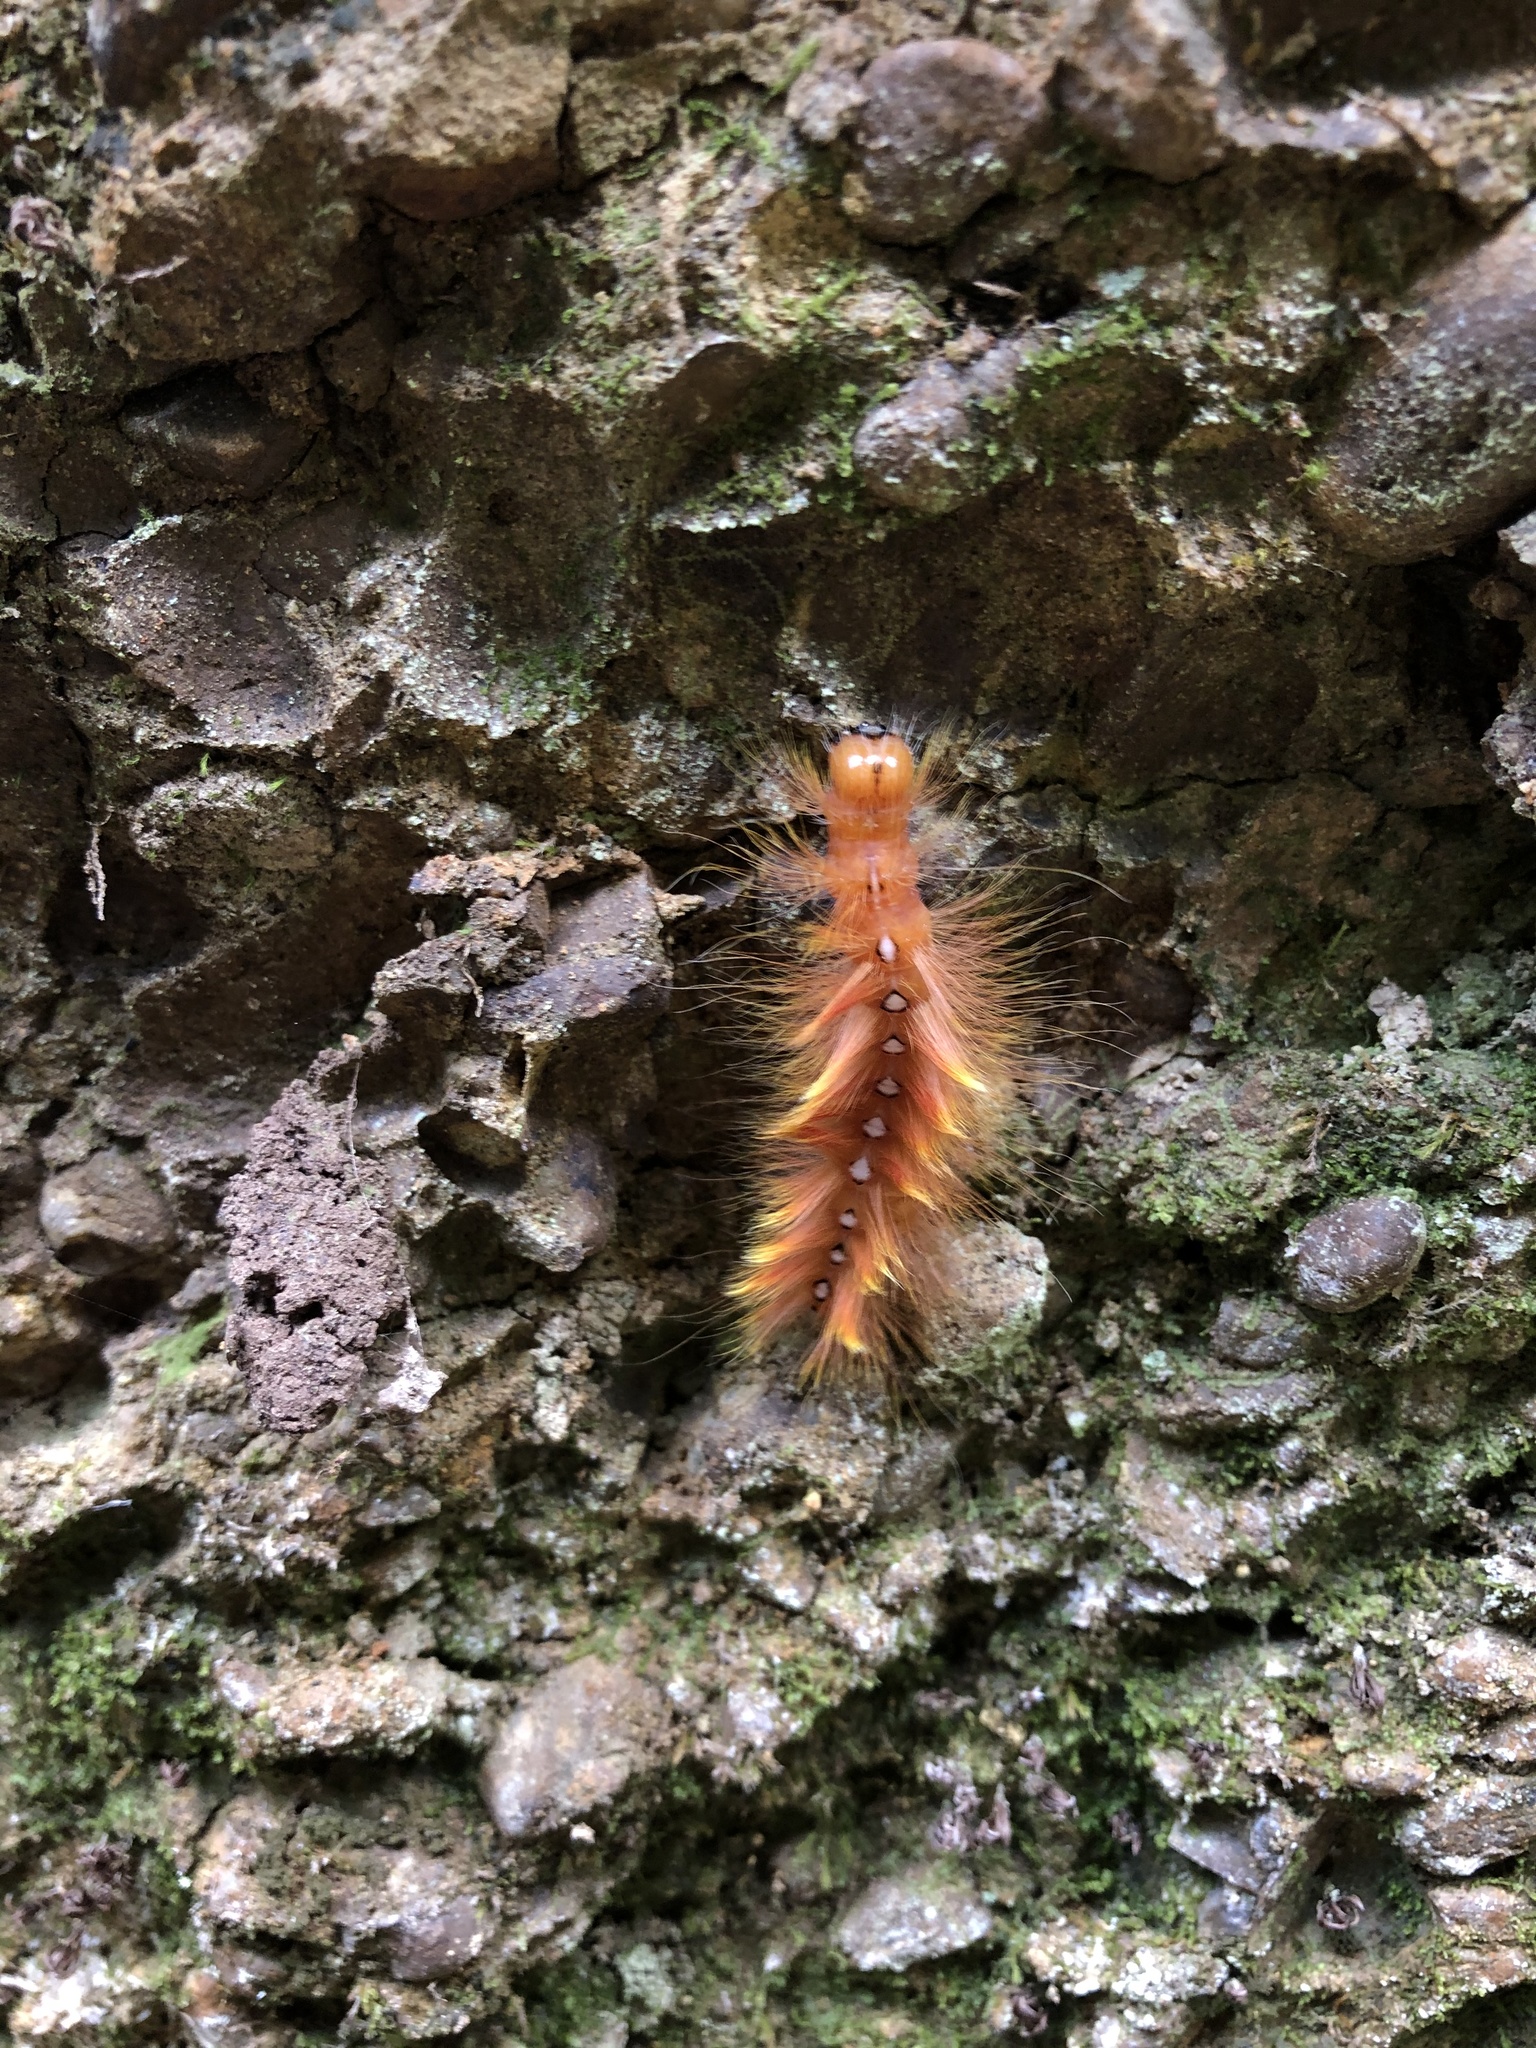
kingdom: Animalia
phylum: Arthropoda
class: Insecta
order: Lepidoptera
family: Noctuidae
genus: Acronicta
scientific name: Acronicta aceris
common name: Sycamore
